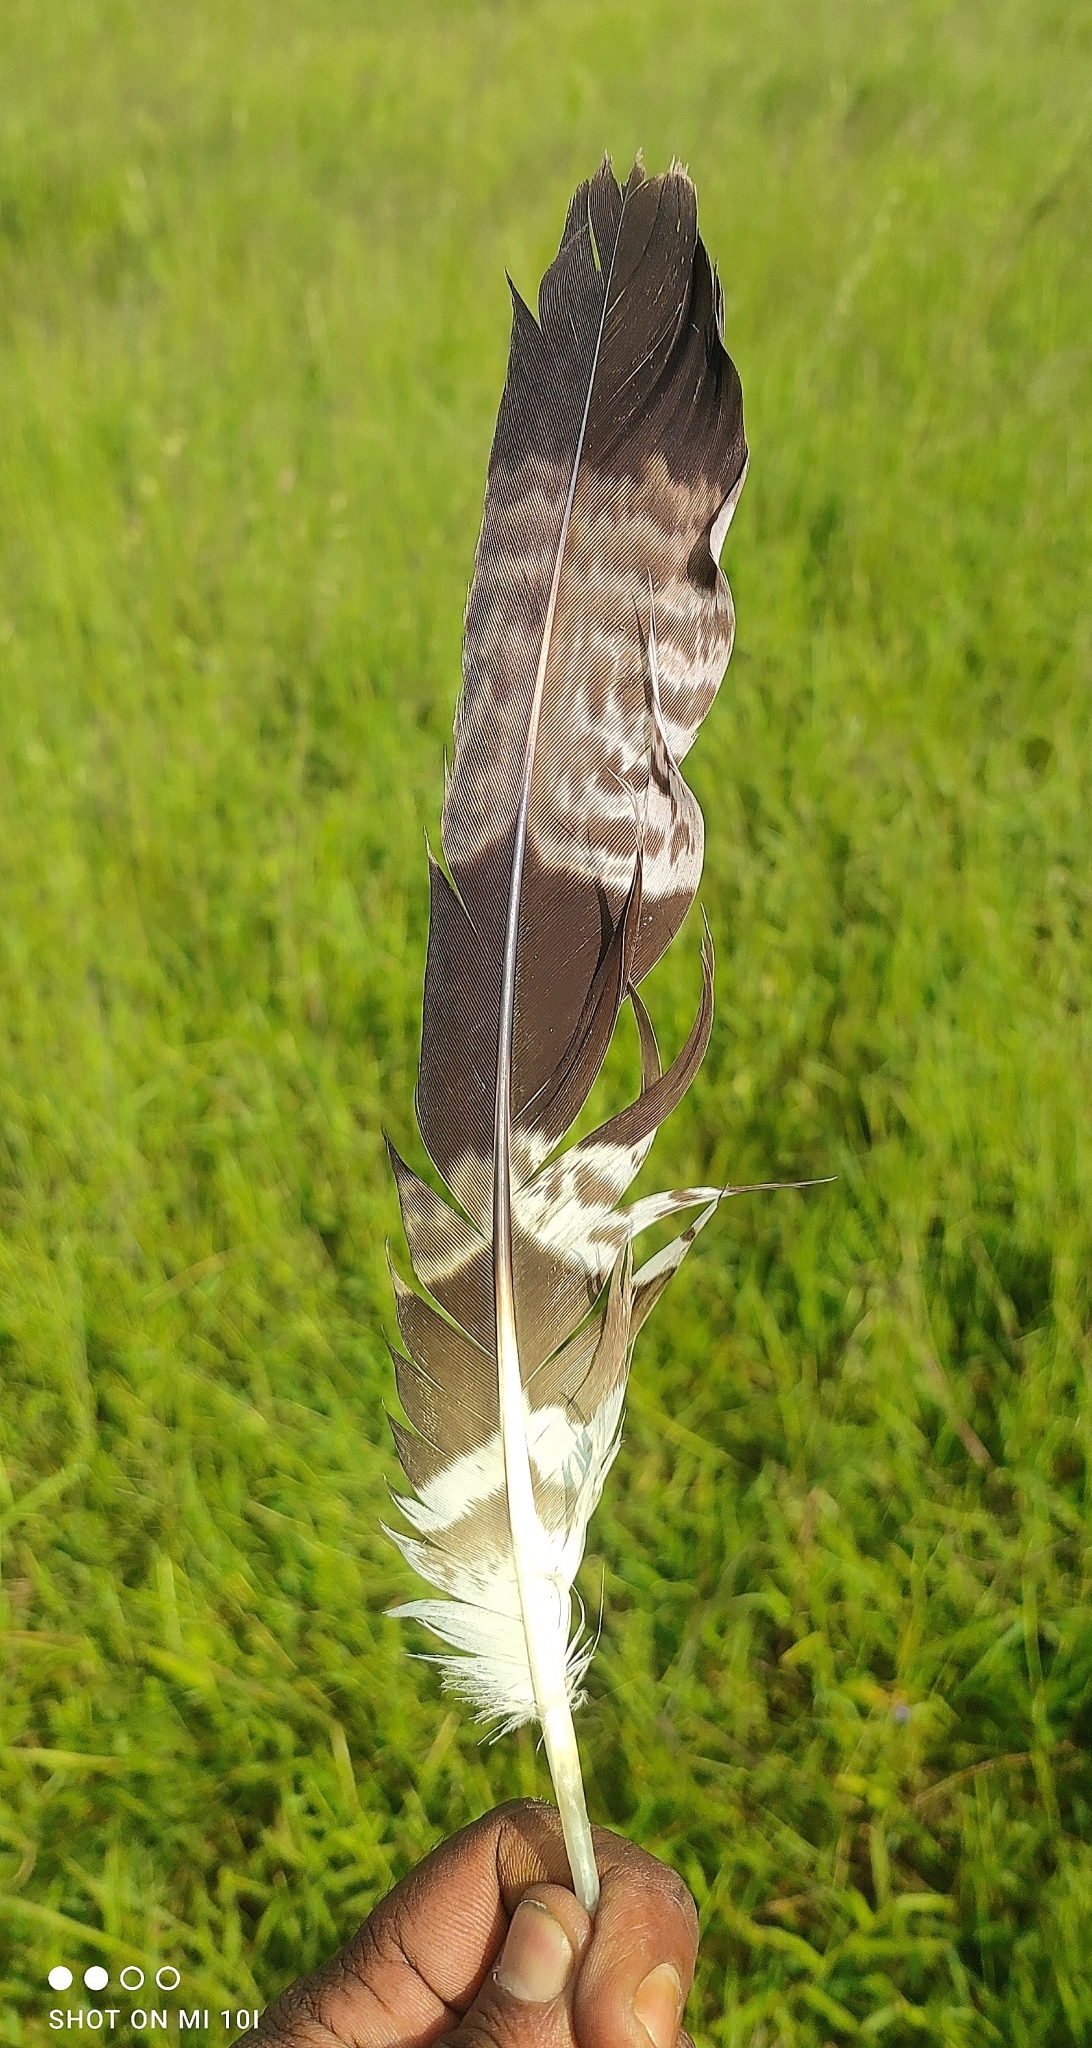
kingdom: Animalia
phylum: Chordata
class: Aves
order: Accipitriformes
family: Accipitridae
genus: Pernis
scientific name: Pernis ptilorhynchus
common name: Crested honey buzzard
